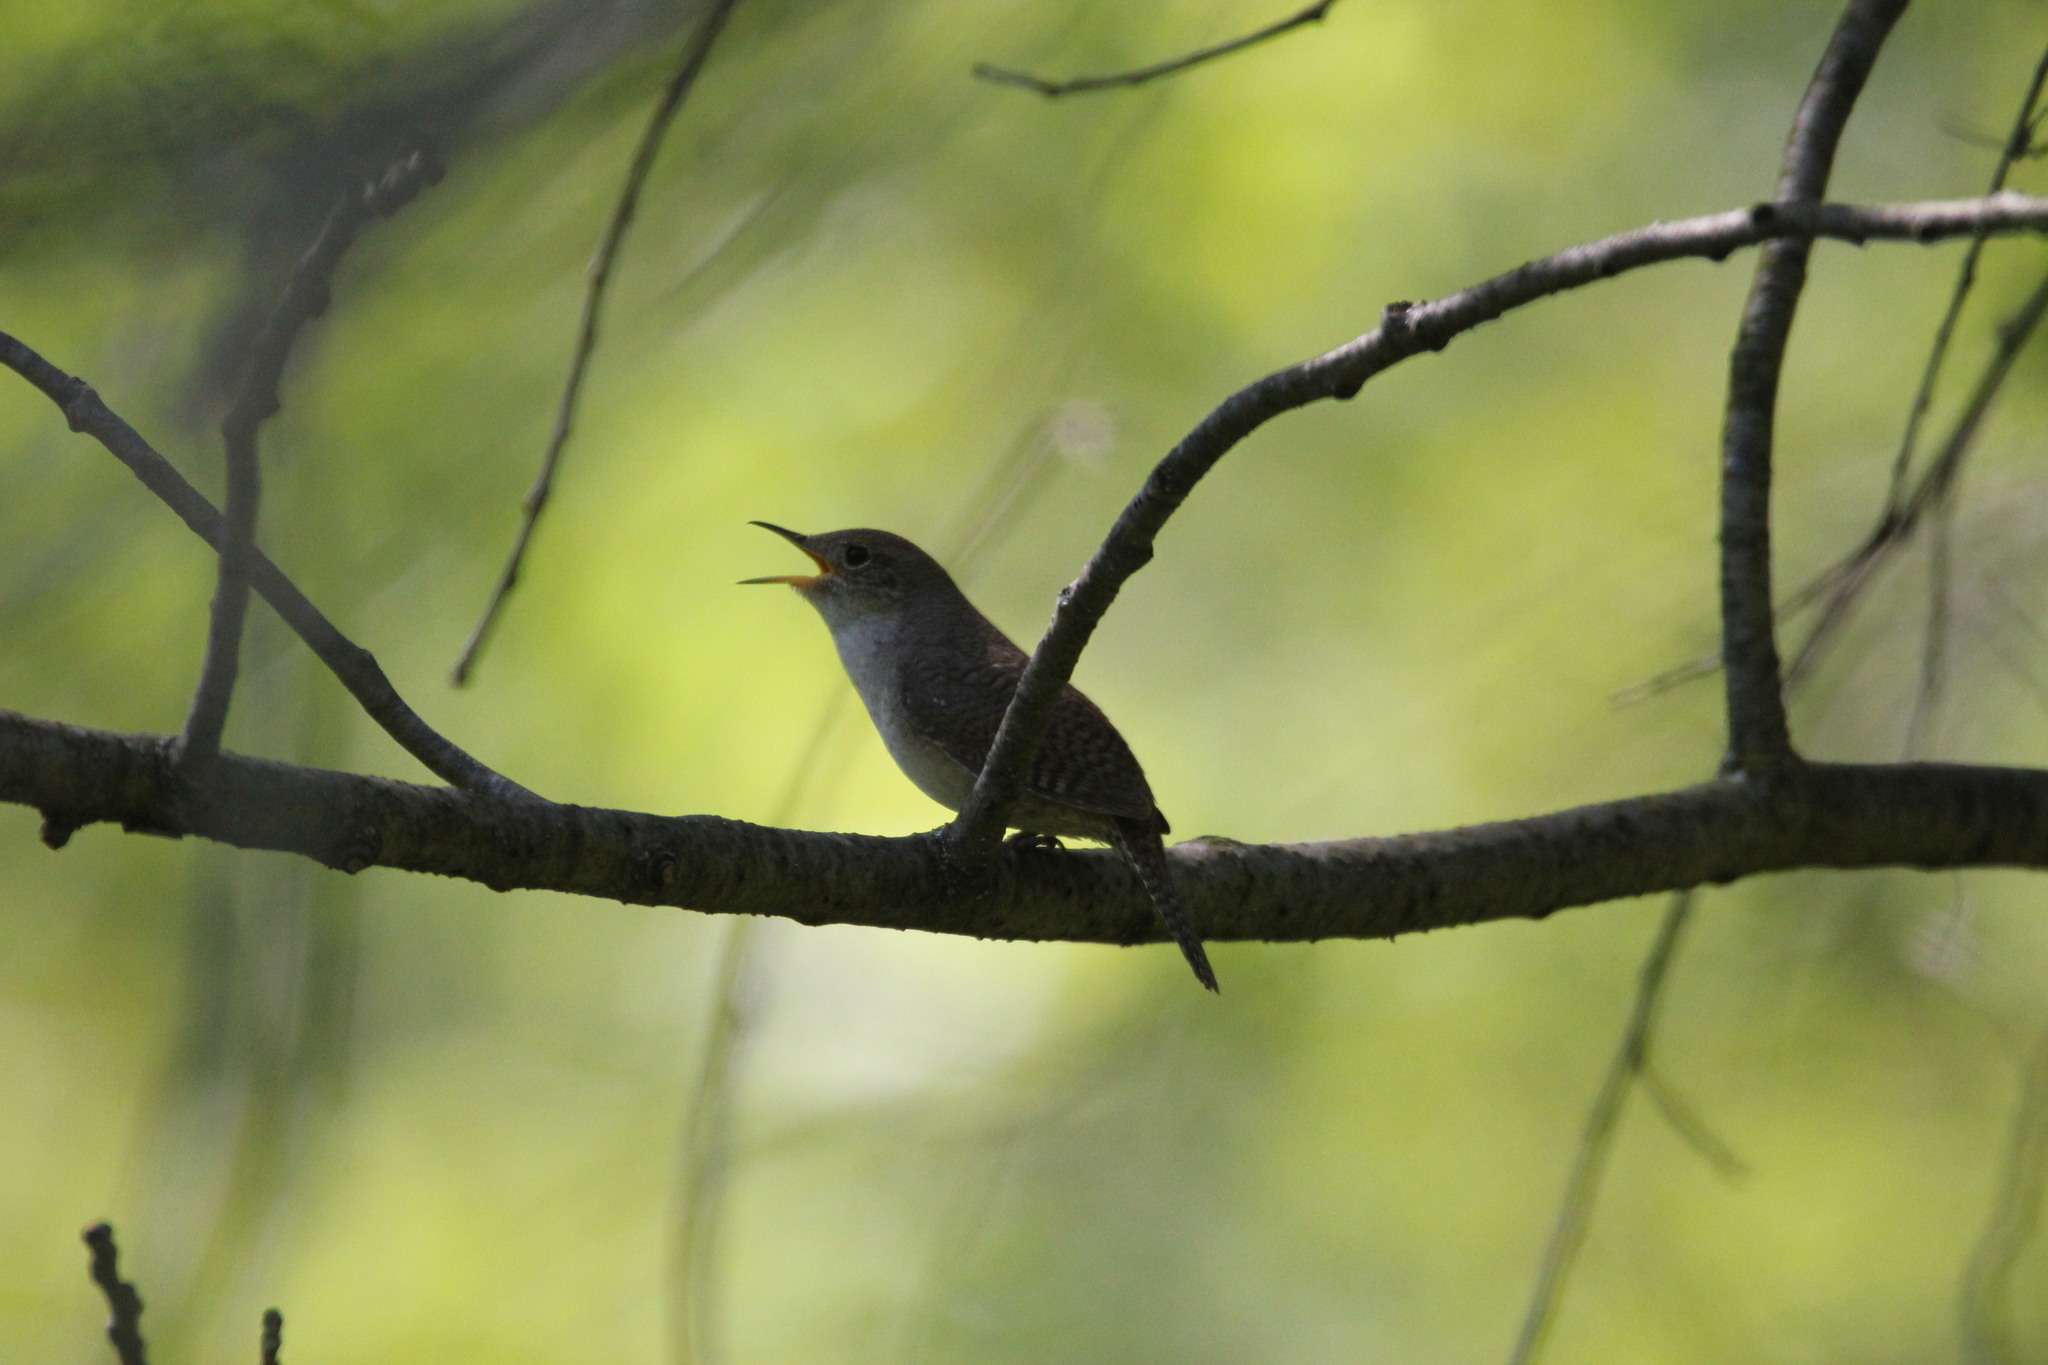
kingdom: Animalia
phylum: Chordata
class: Aves
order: Passeriformes
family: Troglodytidae
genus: Troglodytes
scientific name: Troglodytes aedon
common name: House wren
